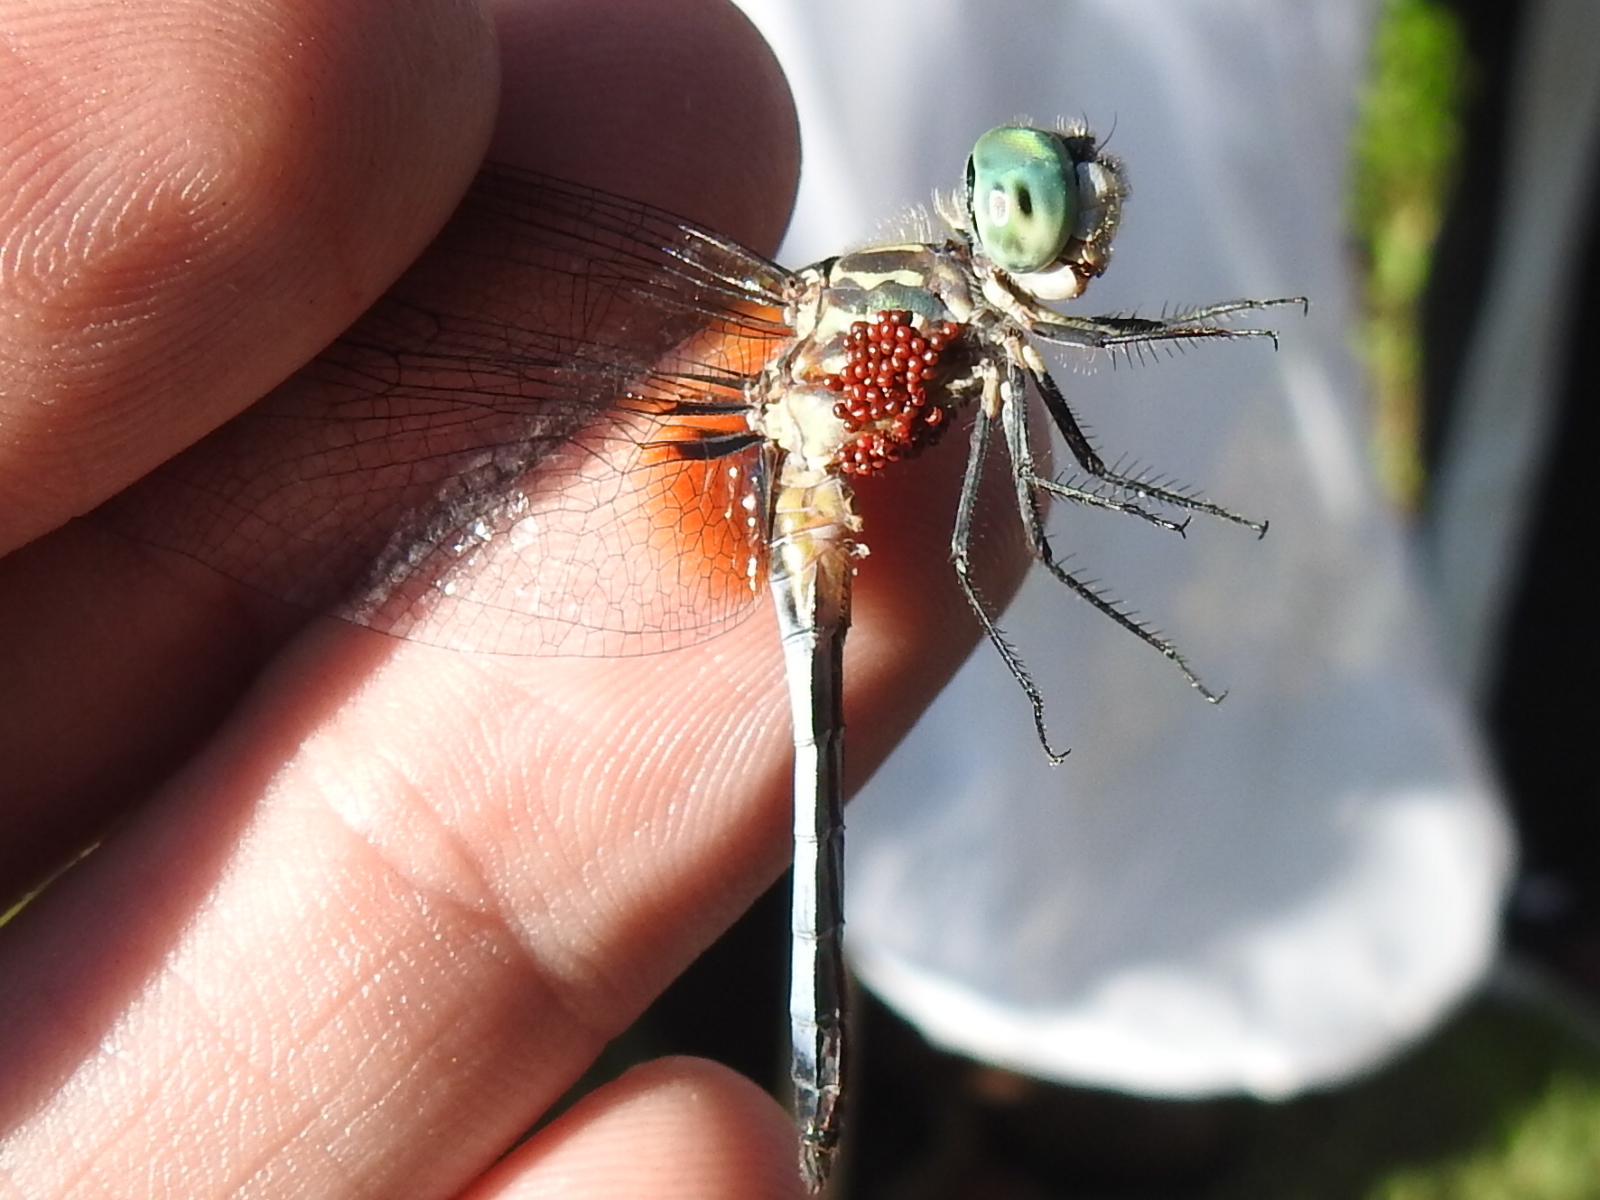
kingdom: Animalia
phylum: Arthropoda
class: Insecta
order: Odonata
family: Libellulidae
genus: Pachydiplax
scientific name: Pachydiplax longipennis
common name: Blue dasher
